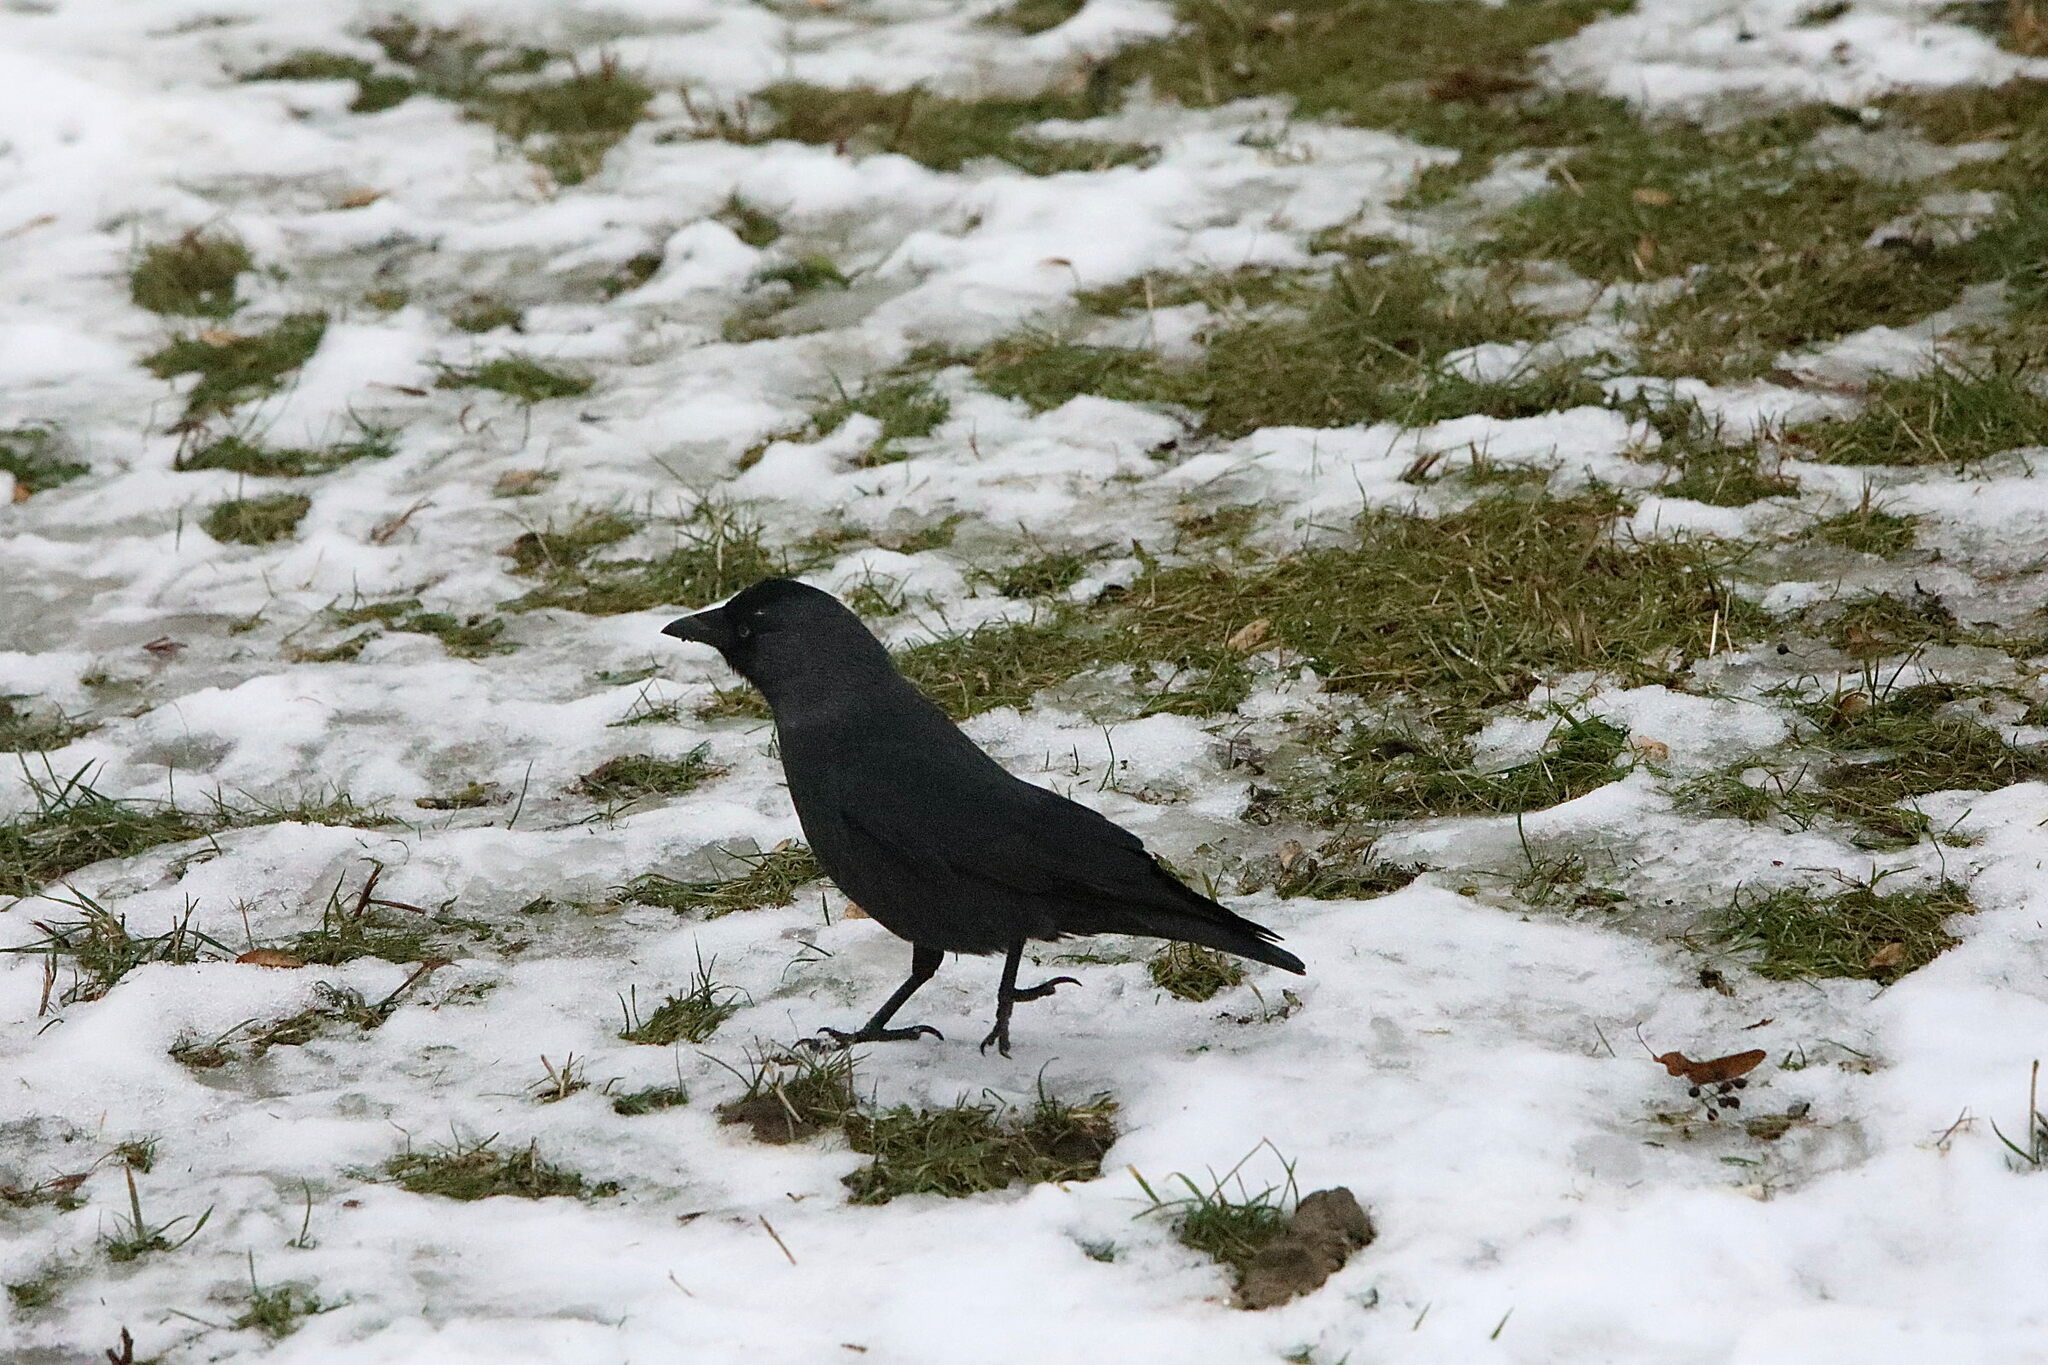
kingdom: Animalia
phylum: Chordata
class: Aves
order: Passeriformes
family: Corvidae
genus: Coloeus
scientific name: Coloeus monedula
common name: Western jackdaw
